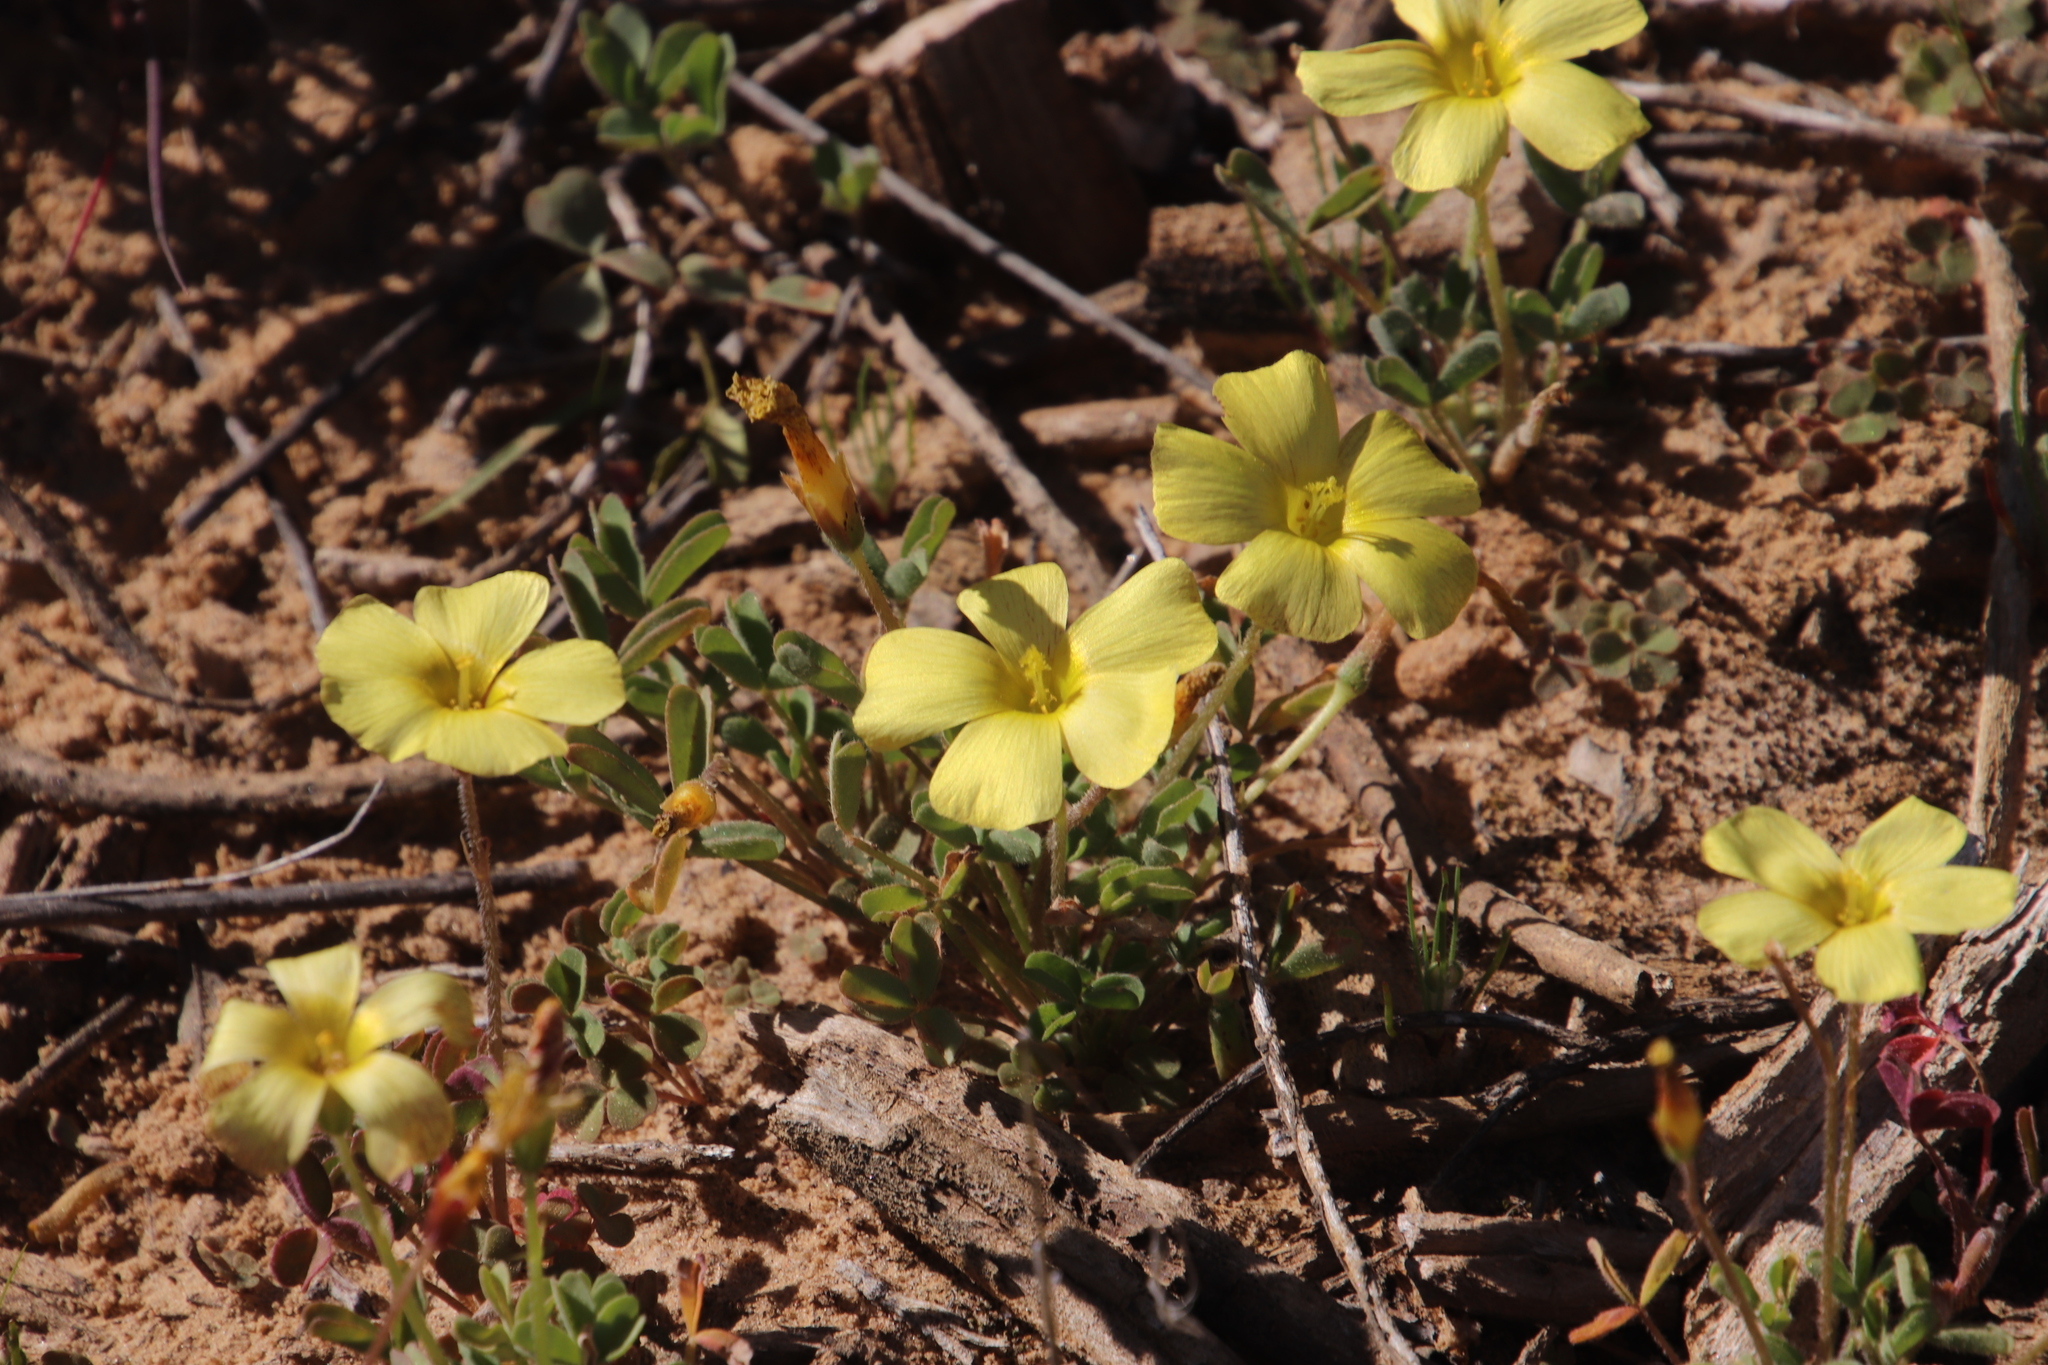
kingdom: Plantae
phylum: Tracheophyta
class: Magnoliopsida
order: Oxalidales
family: Oxalidaceae
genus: Oxalis
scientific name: Oxalis obtusa
